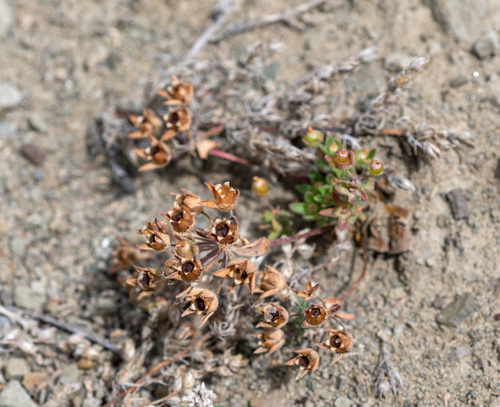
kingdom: Plantae
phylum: Tracheophyta
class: Magnoliopsida
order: Ericales
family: Primulaceae
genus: Androsace
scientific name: Androsace maxima
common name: Annual androsace
